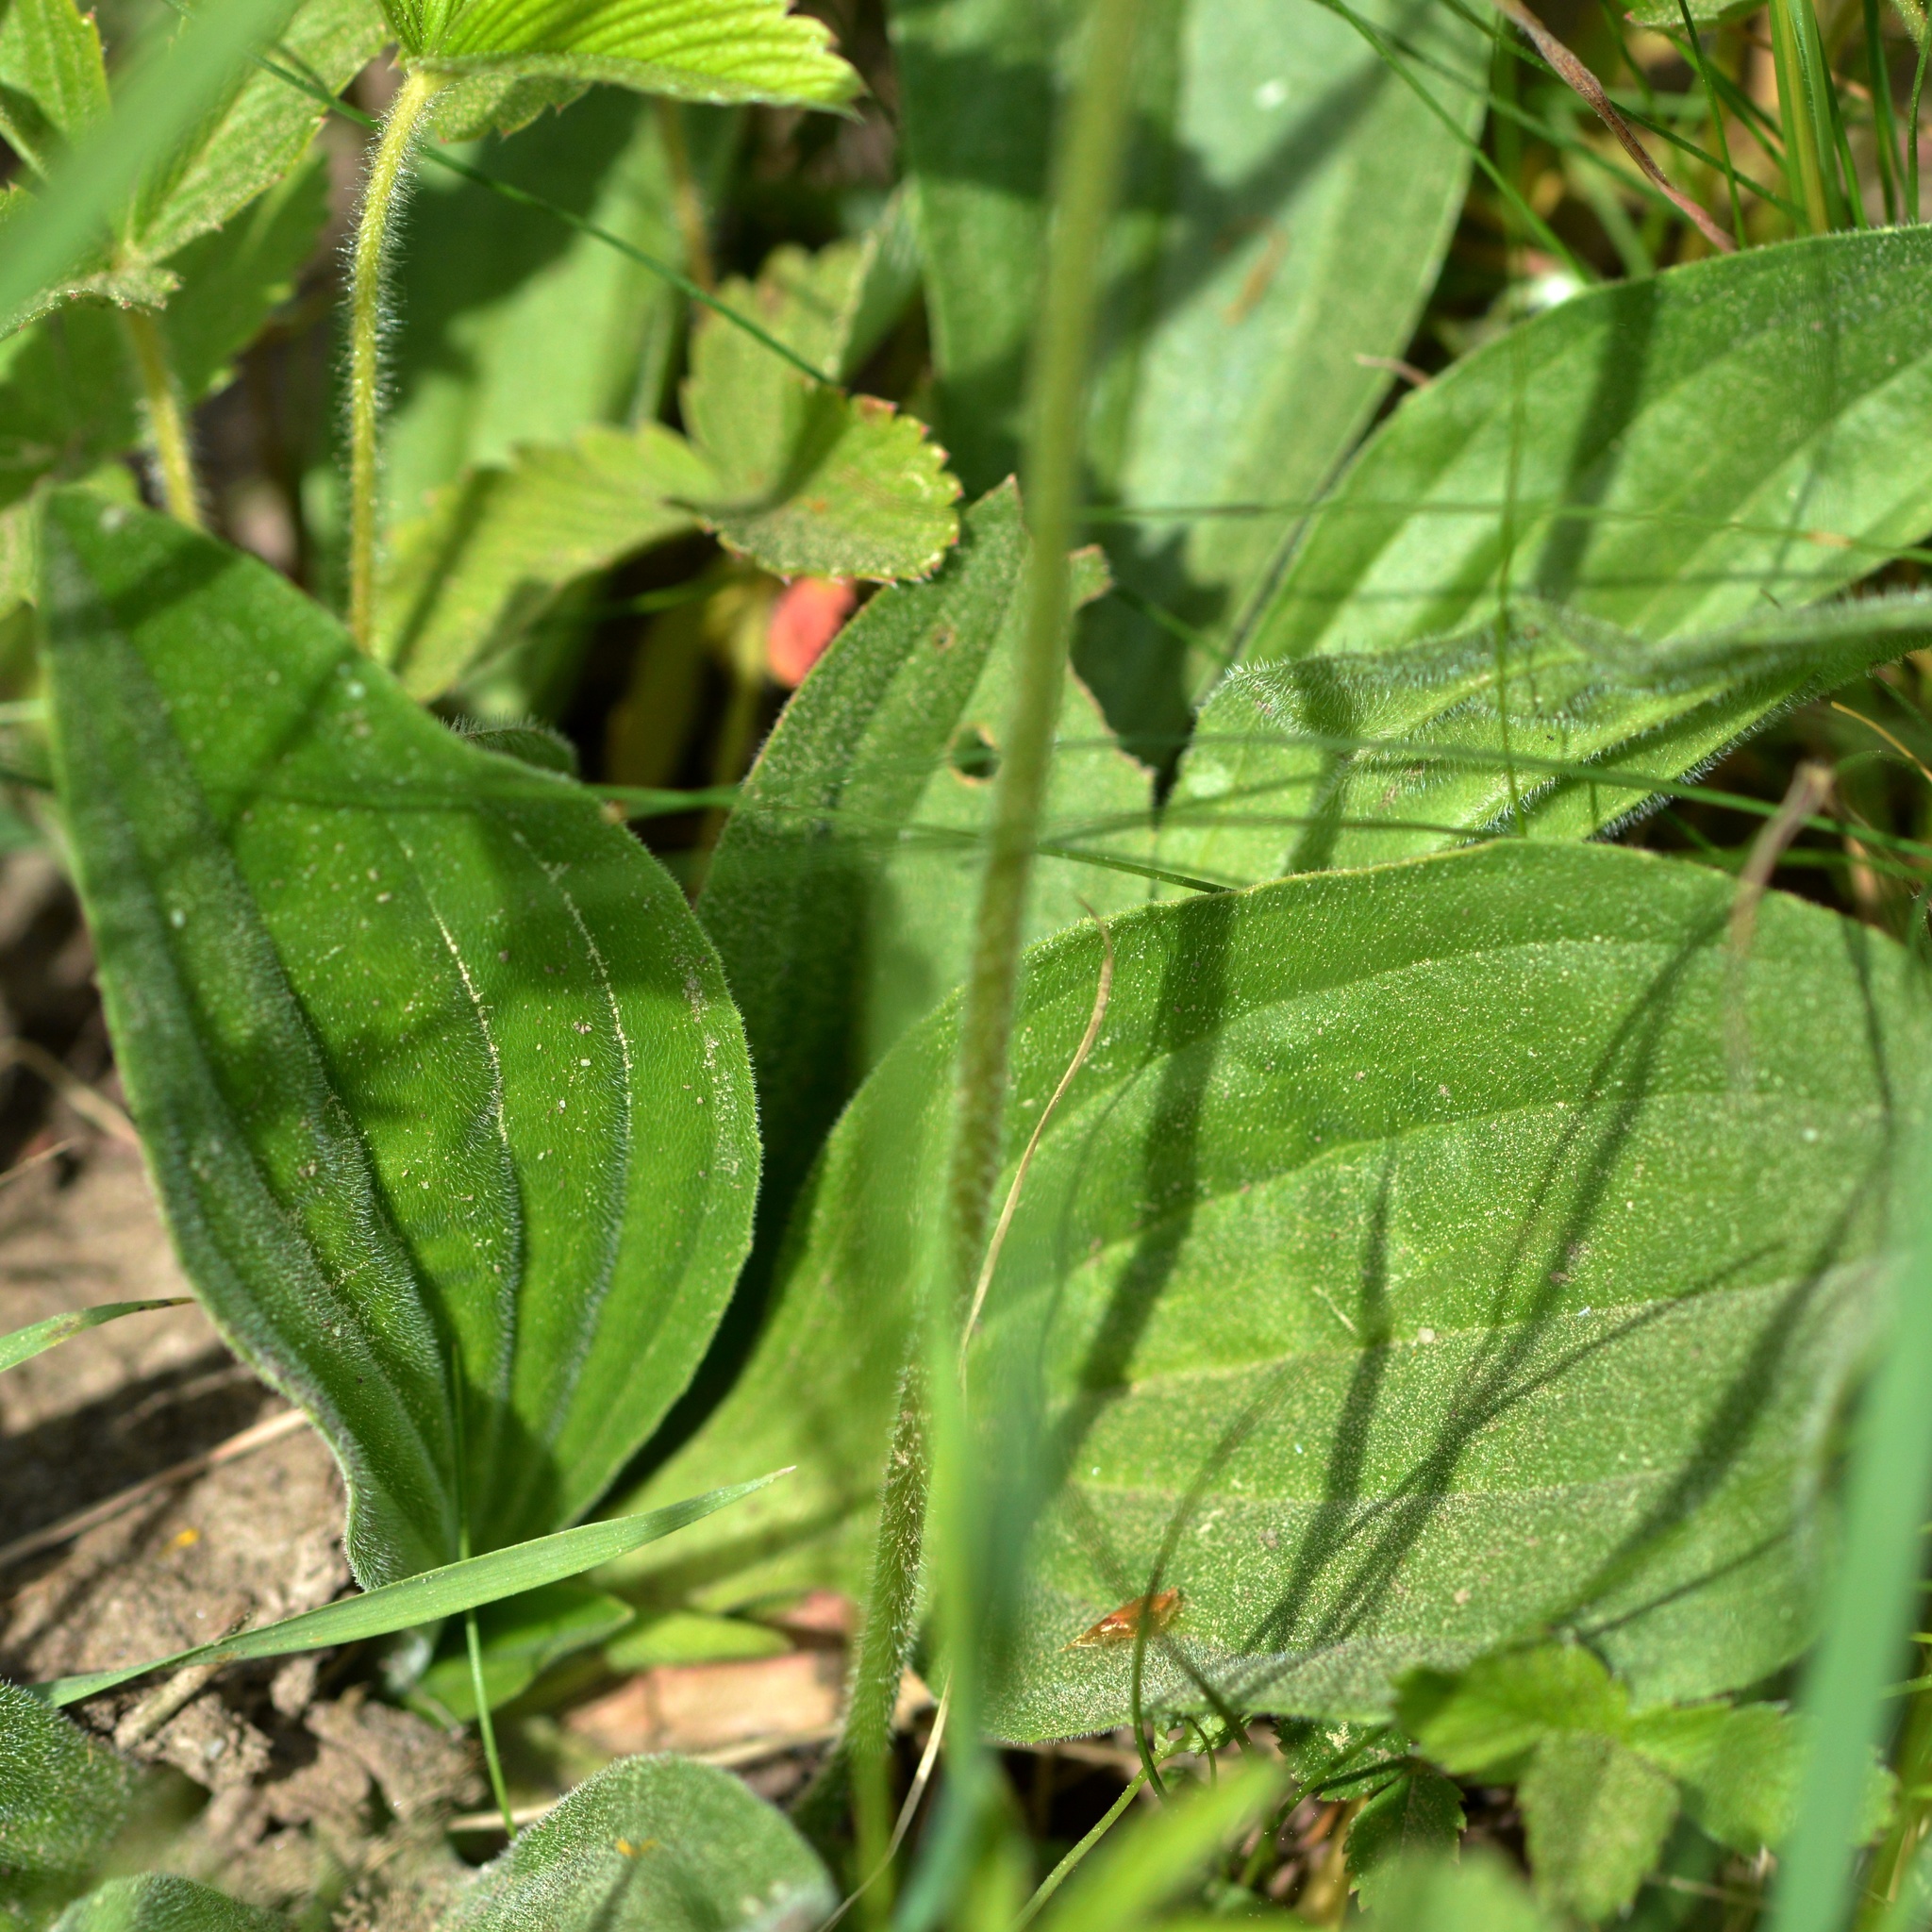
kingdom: Plantae
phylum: Tracheophyta
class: Magnoliopsida
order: Lamiales
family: Plantaginaceae
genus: Plantago
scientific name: Plantago media
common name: Hoary plantain
